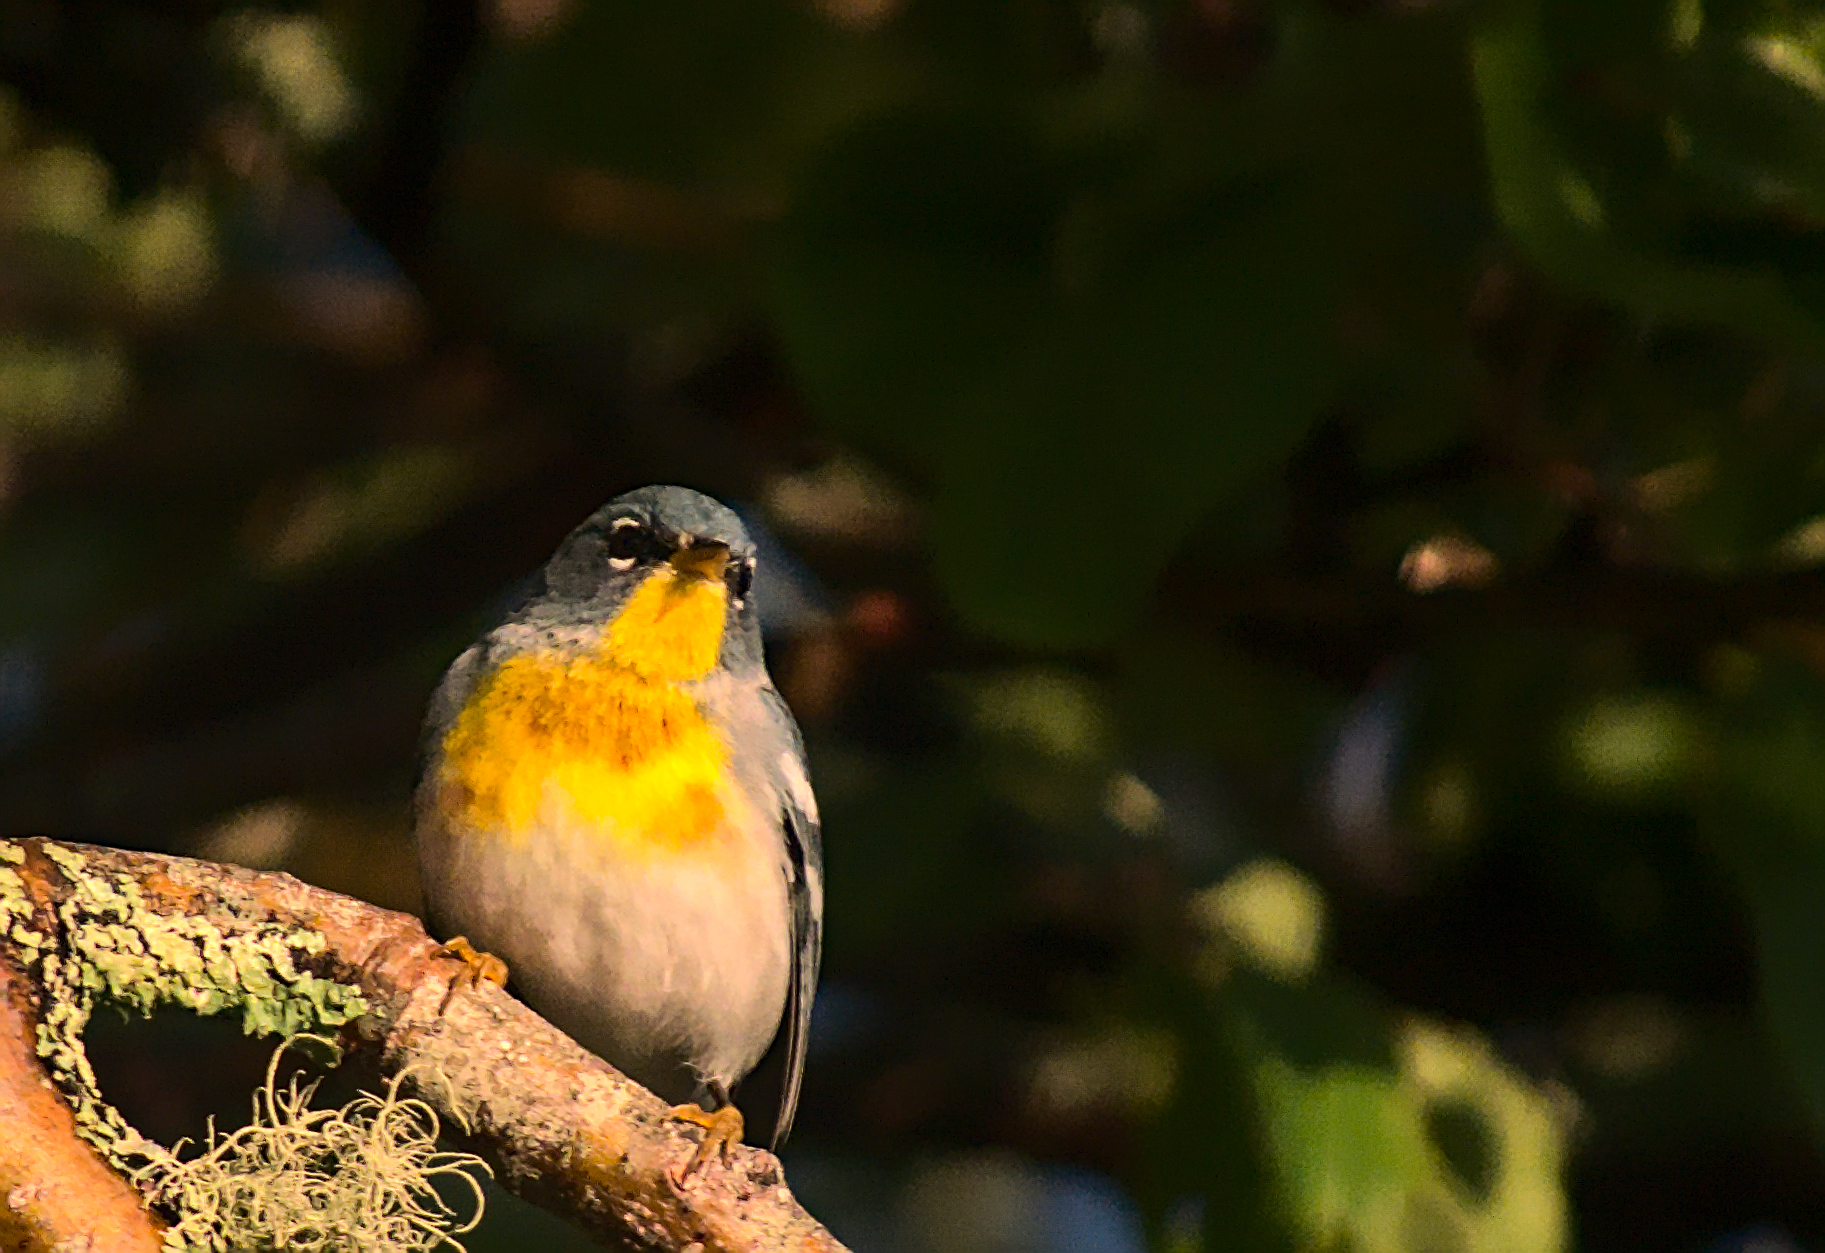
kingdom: Animalia
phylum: Chordata
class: Aves
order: Passeriformes
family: Parulidae
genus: Setophaga
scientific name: Setophaga americana
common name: Northern parula
